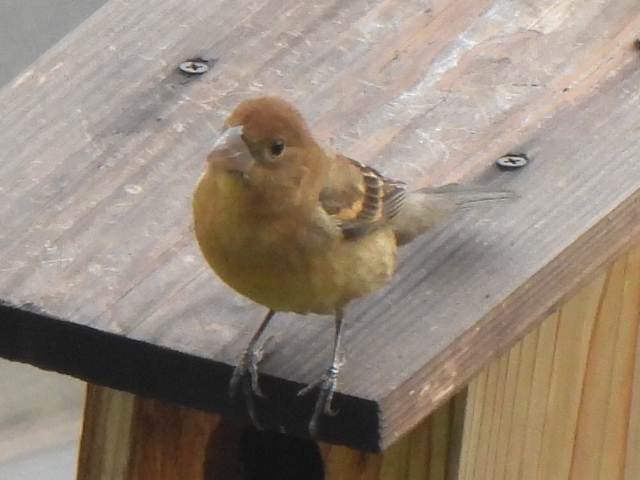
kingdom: Animalia
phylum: Chordata
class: Aves
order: Passeriformes
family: Cardinalidae
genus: Passerina
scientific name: Passerina caerulea
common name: Blue grosbeak
